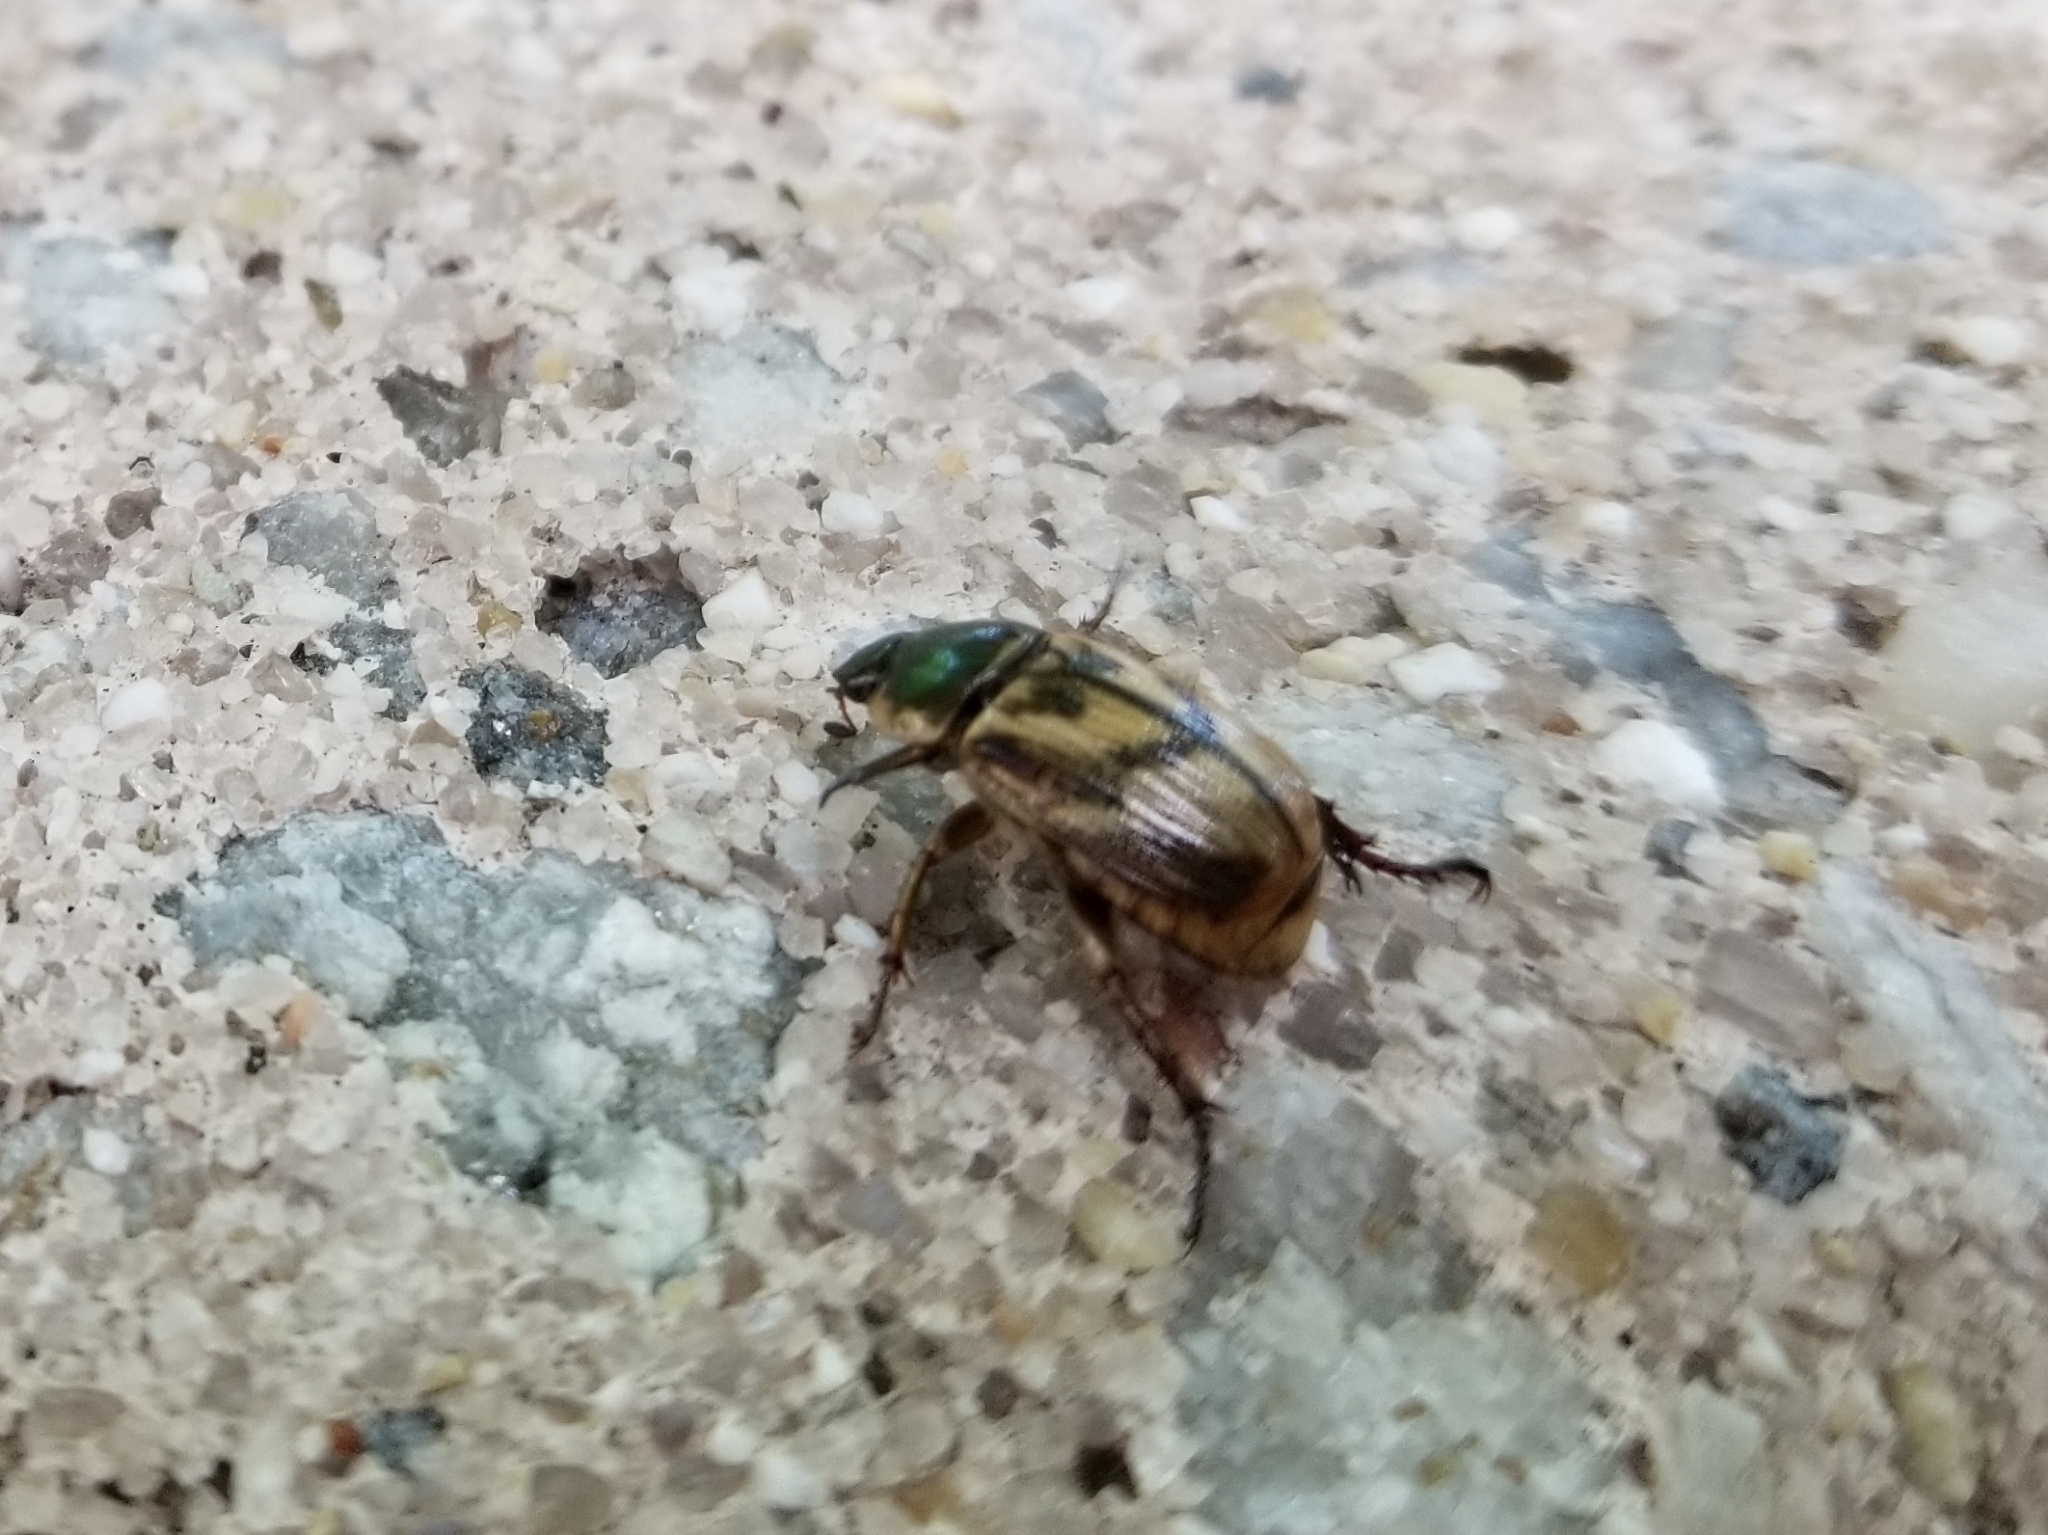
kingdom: Animalia
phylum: Arthropoda
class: Insecta
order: Coleoptera
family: Scarabaeidae
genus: Exomala
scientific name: Exomala orientalis
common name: Oriental beetle
